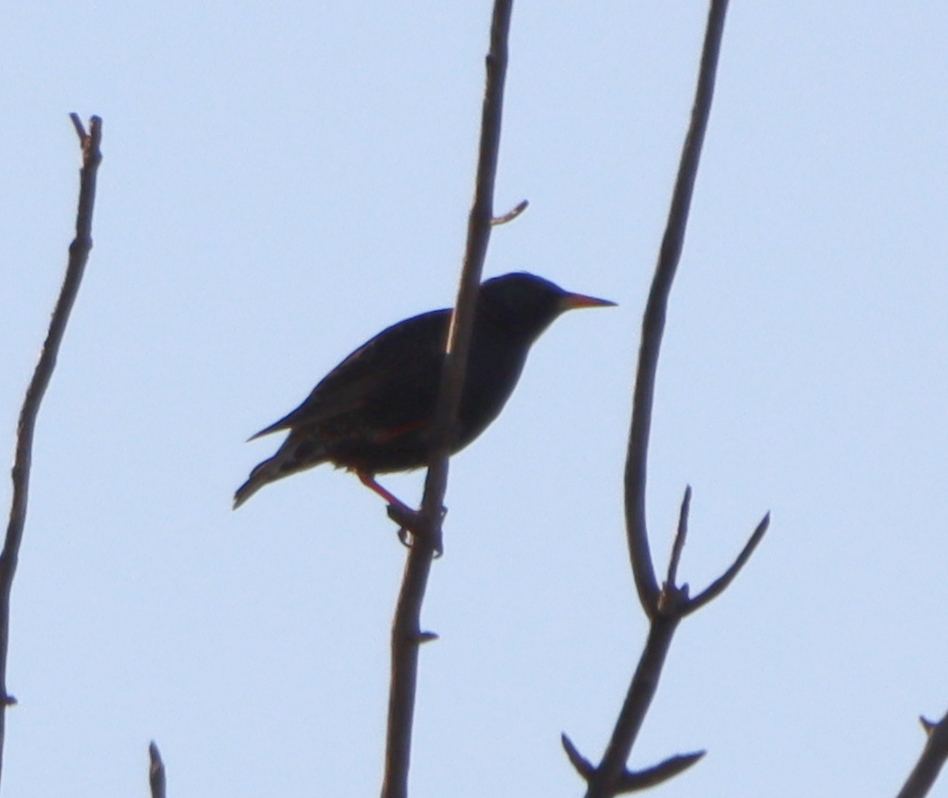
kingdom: Animalia
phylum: Chordata
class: Aves
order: Passeriformes
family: Sturnidae
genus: Sturnus
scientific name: Sturnus vulgaris
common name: Common starling
